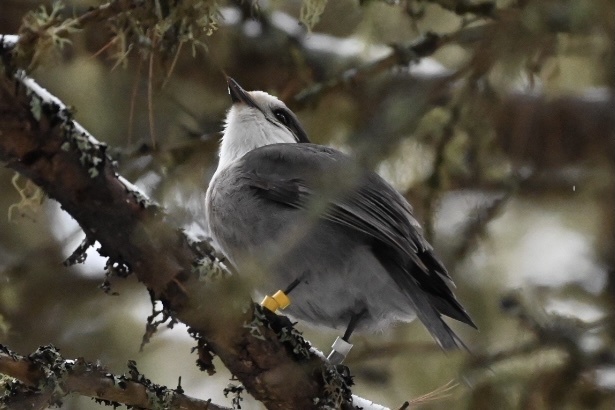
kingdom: Animalia
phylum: Chordata
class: Aves
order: Passeriformes
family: Corvidae
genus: Perisoreus
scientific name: Perisoreus canadensis
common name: Gray jay
